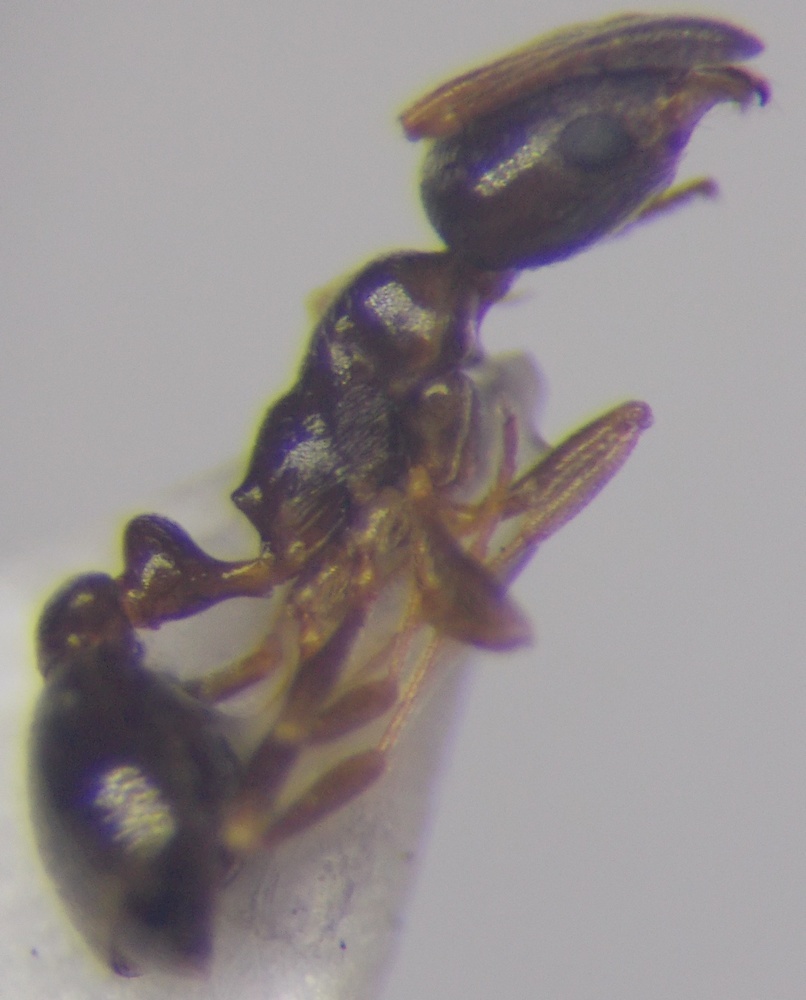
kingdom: Animalia
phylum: Arthropoda
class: Insecta
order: Hymenoptera
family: Formicidae
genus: Cardiocondyla
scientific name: Cardiocondyla stambuloffii
